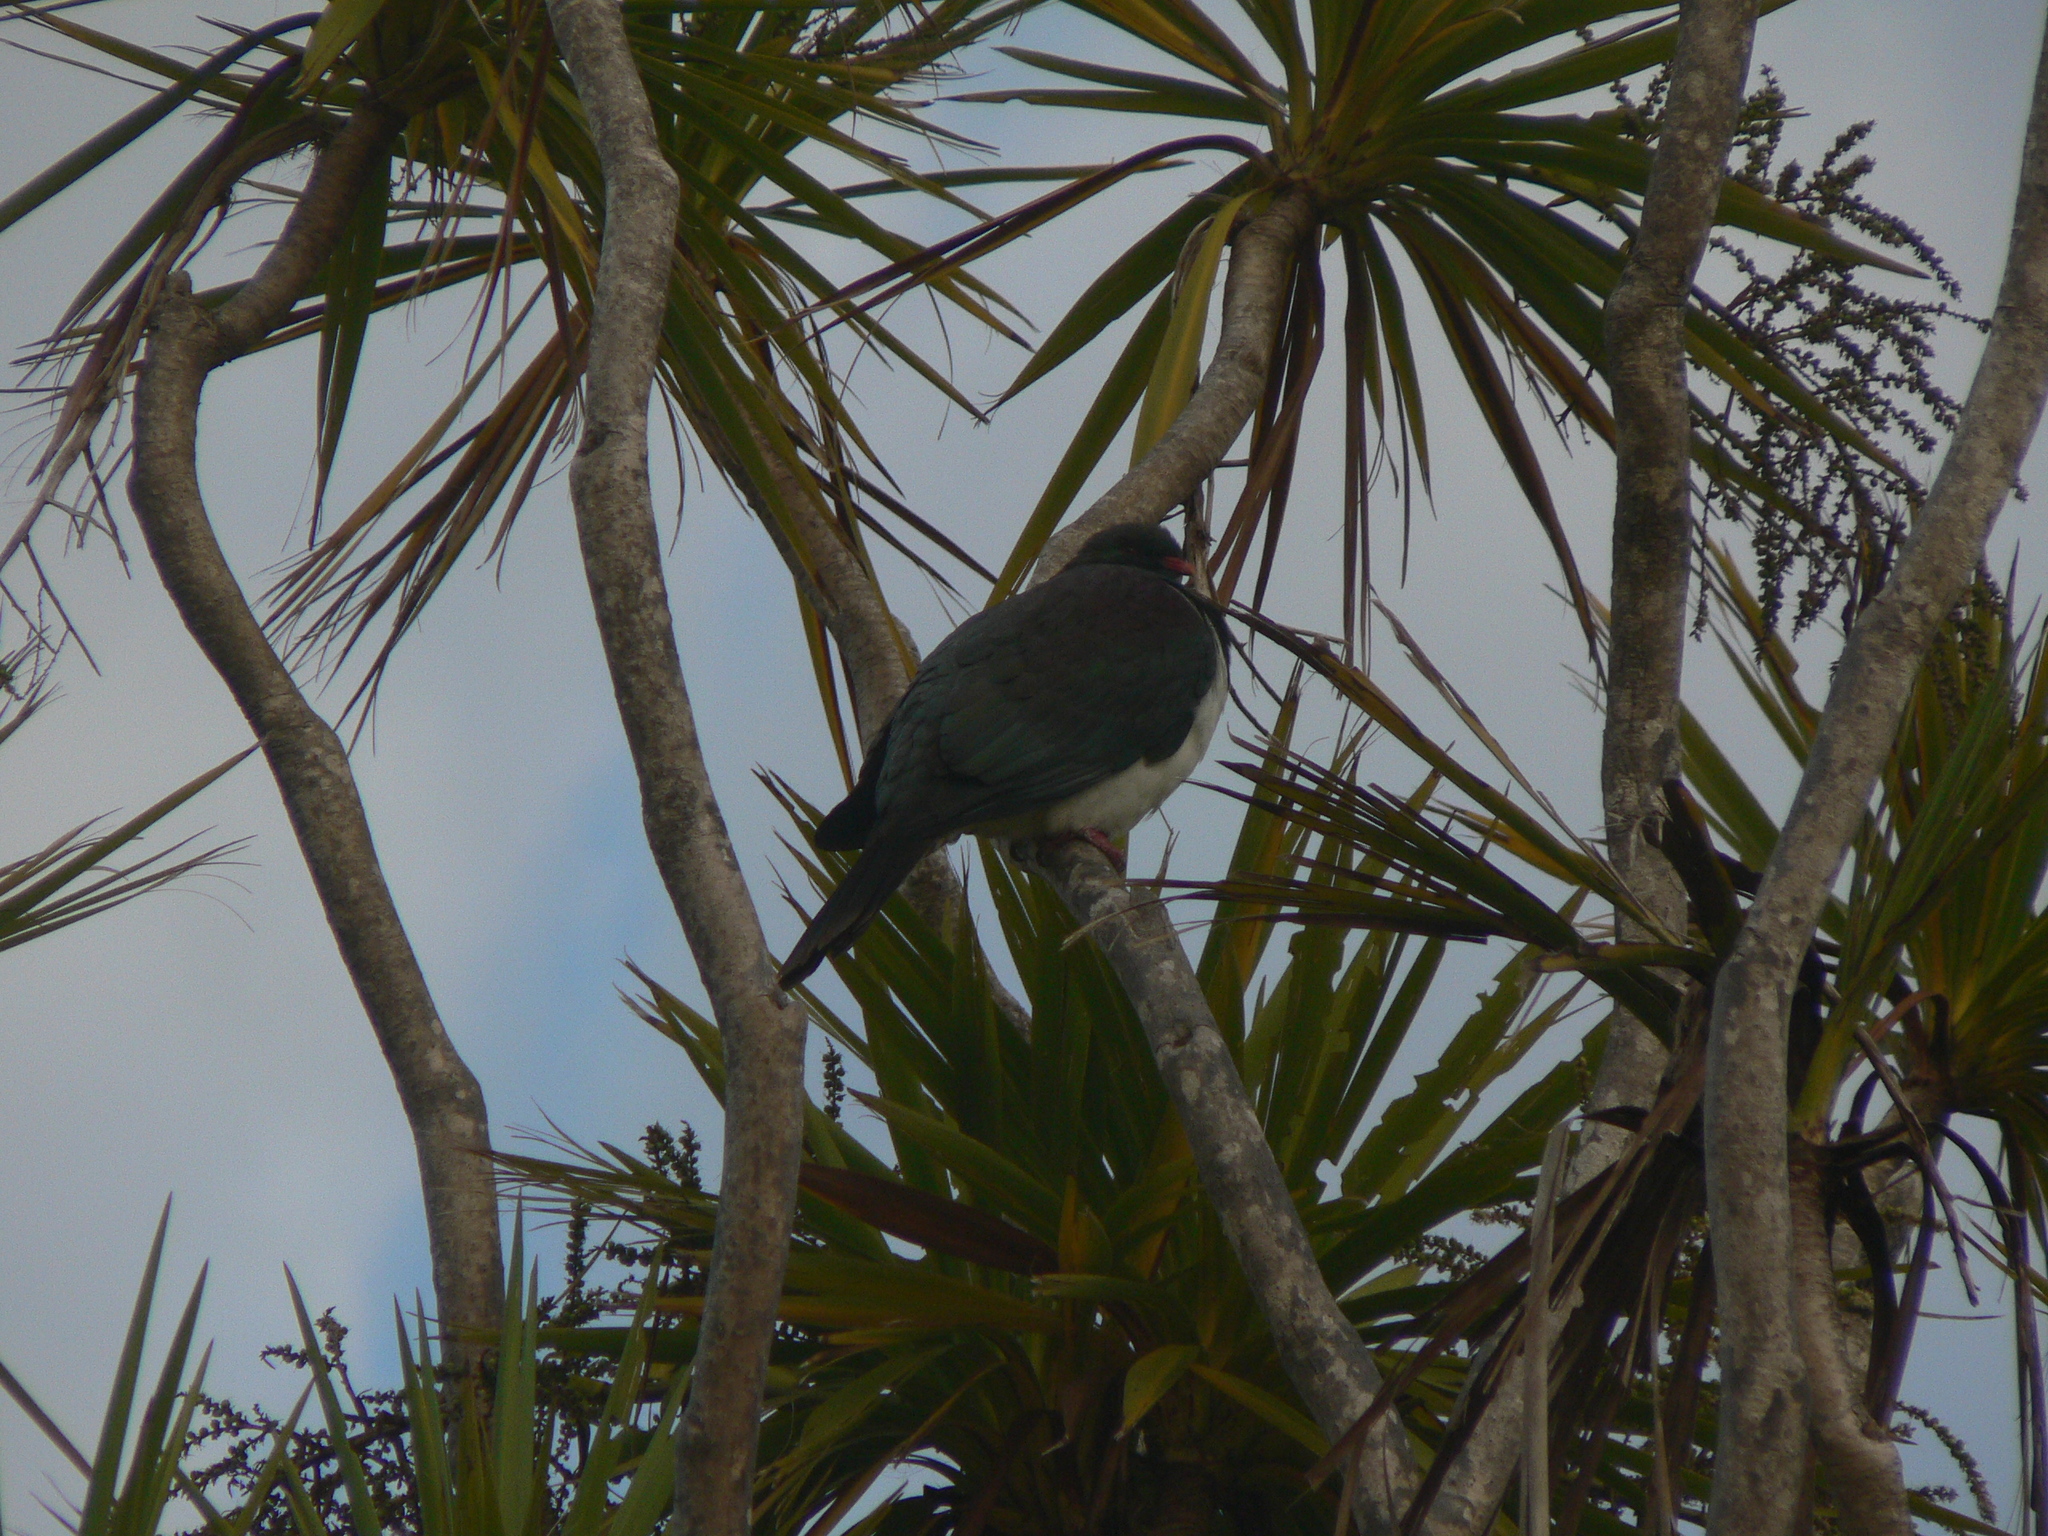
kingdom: Animalia
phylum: Chordata
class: Aves
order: Columbiformes
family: Columbidae
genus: Hemiphaga
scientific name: Hemiphaga novaeseelandiae
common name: New zealand pigeon
